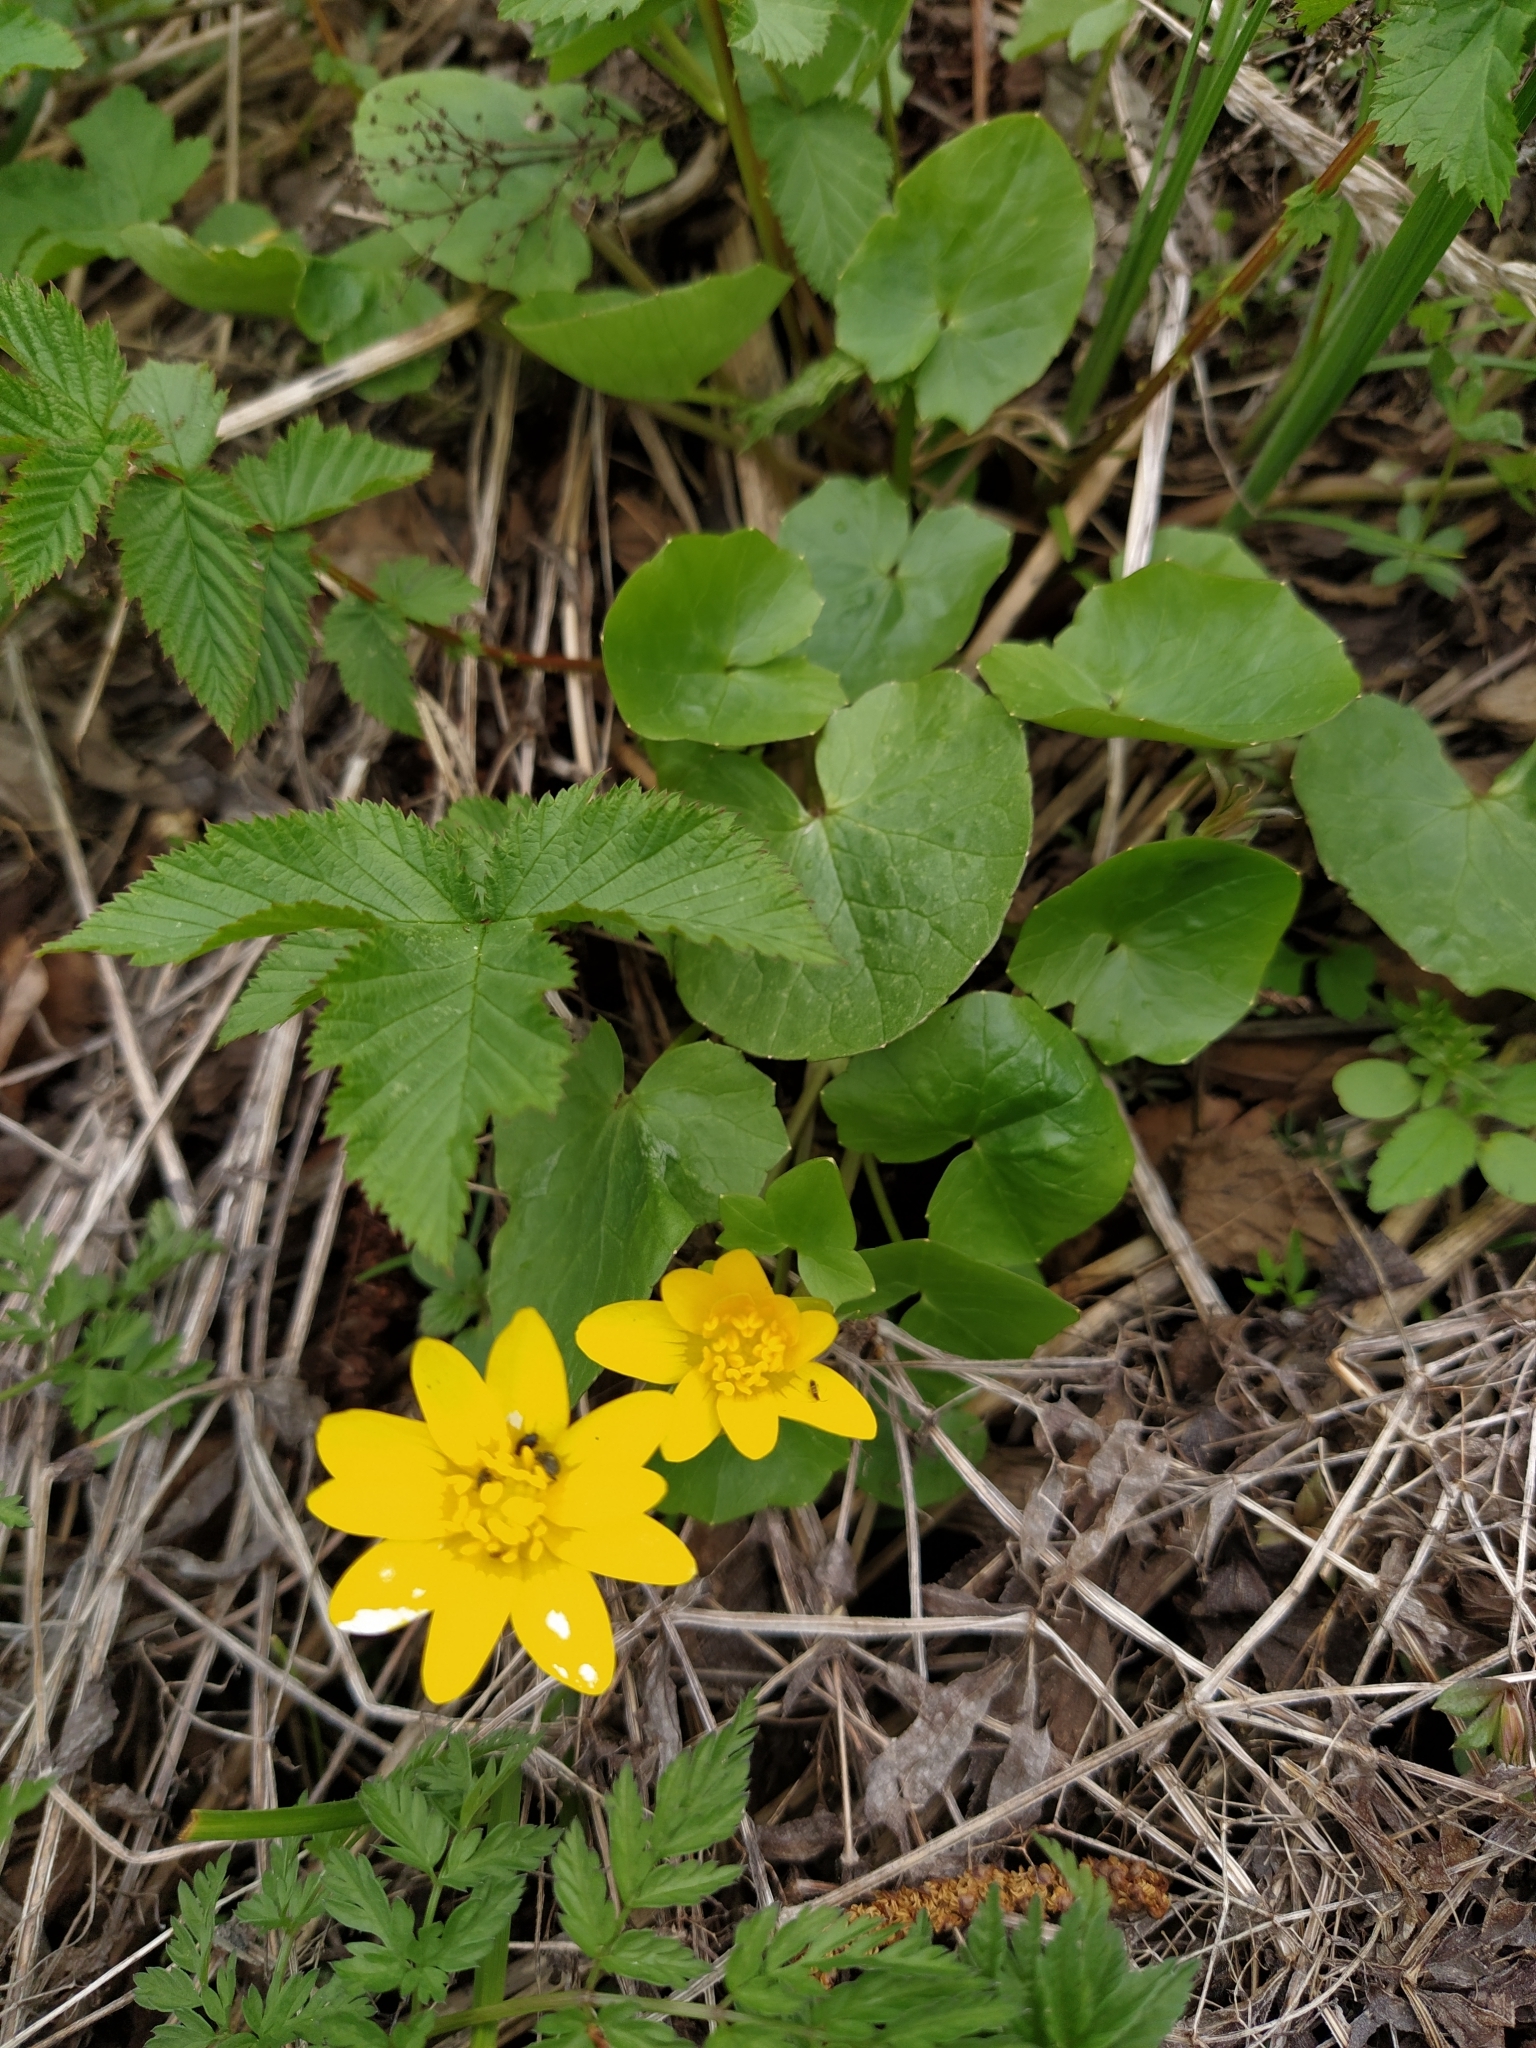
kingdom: Plantae
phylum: Tracheophyta
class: Magnoliopsida
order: Ranunculales
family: Ranunculaceae
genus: Ficaria
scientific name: Ficaria verna
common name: Lesser celandine
